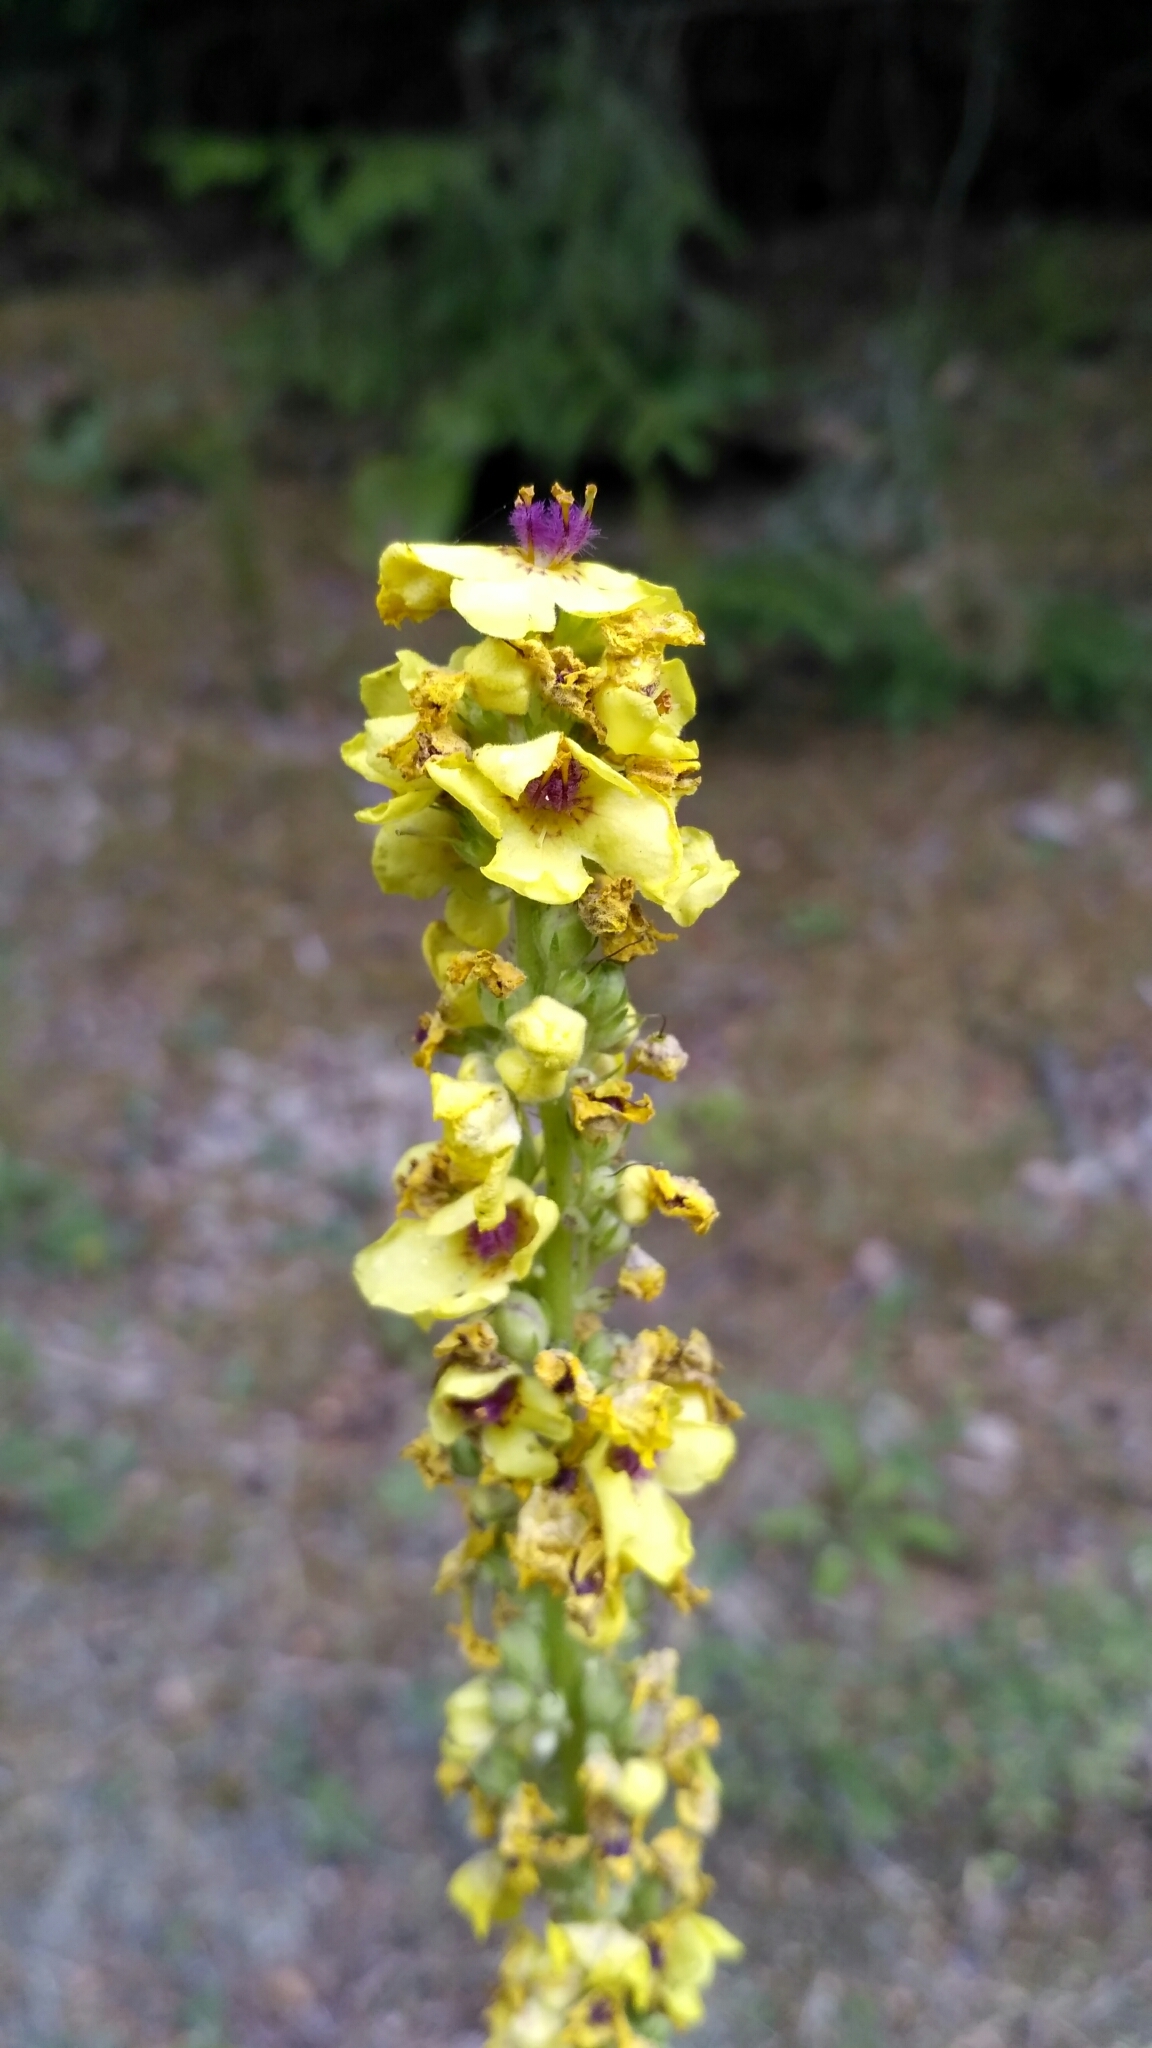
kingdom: Plantae
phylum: Tracheophyta
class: Magnoliopsida
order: Lamiales
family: Scrophulariaceae
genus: Verbascum
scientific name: Verbascum nigrum
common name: Dark mullein
